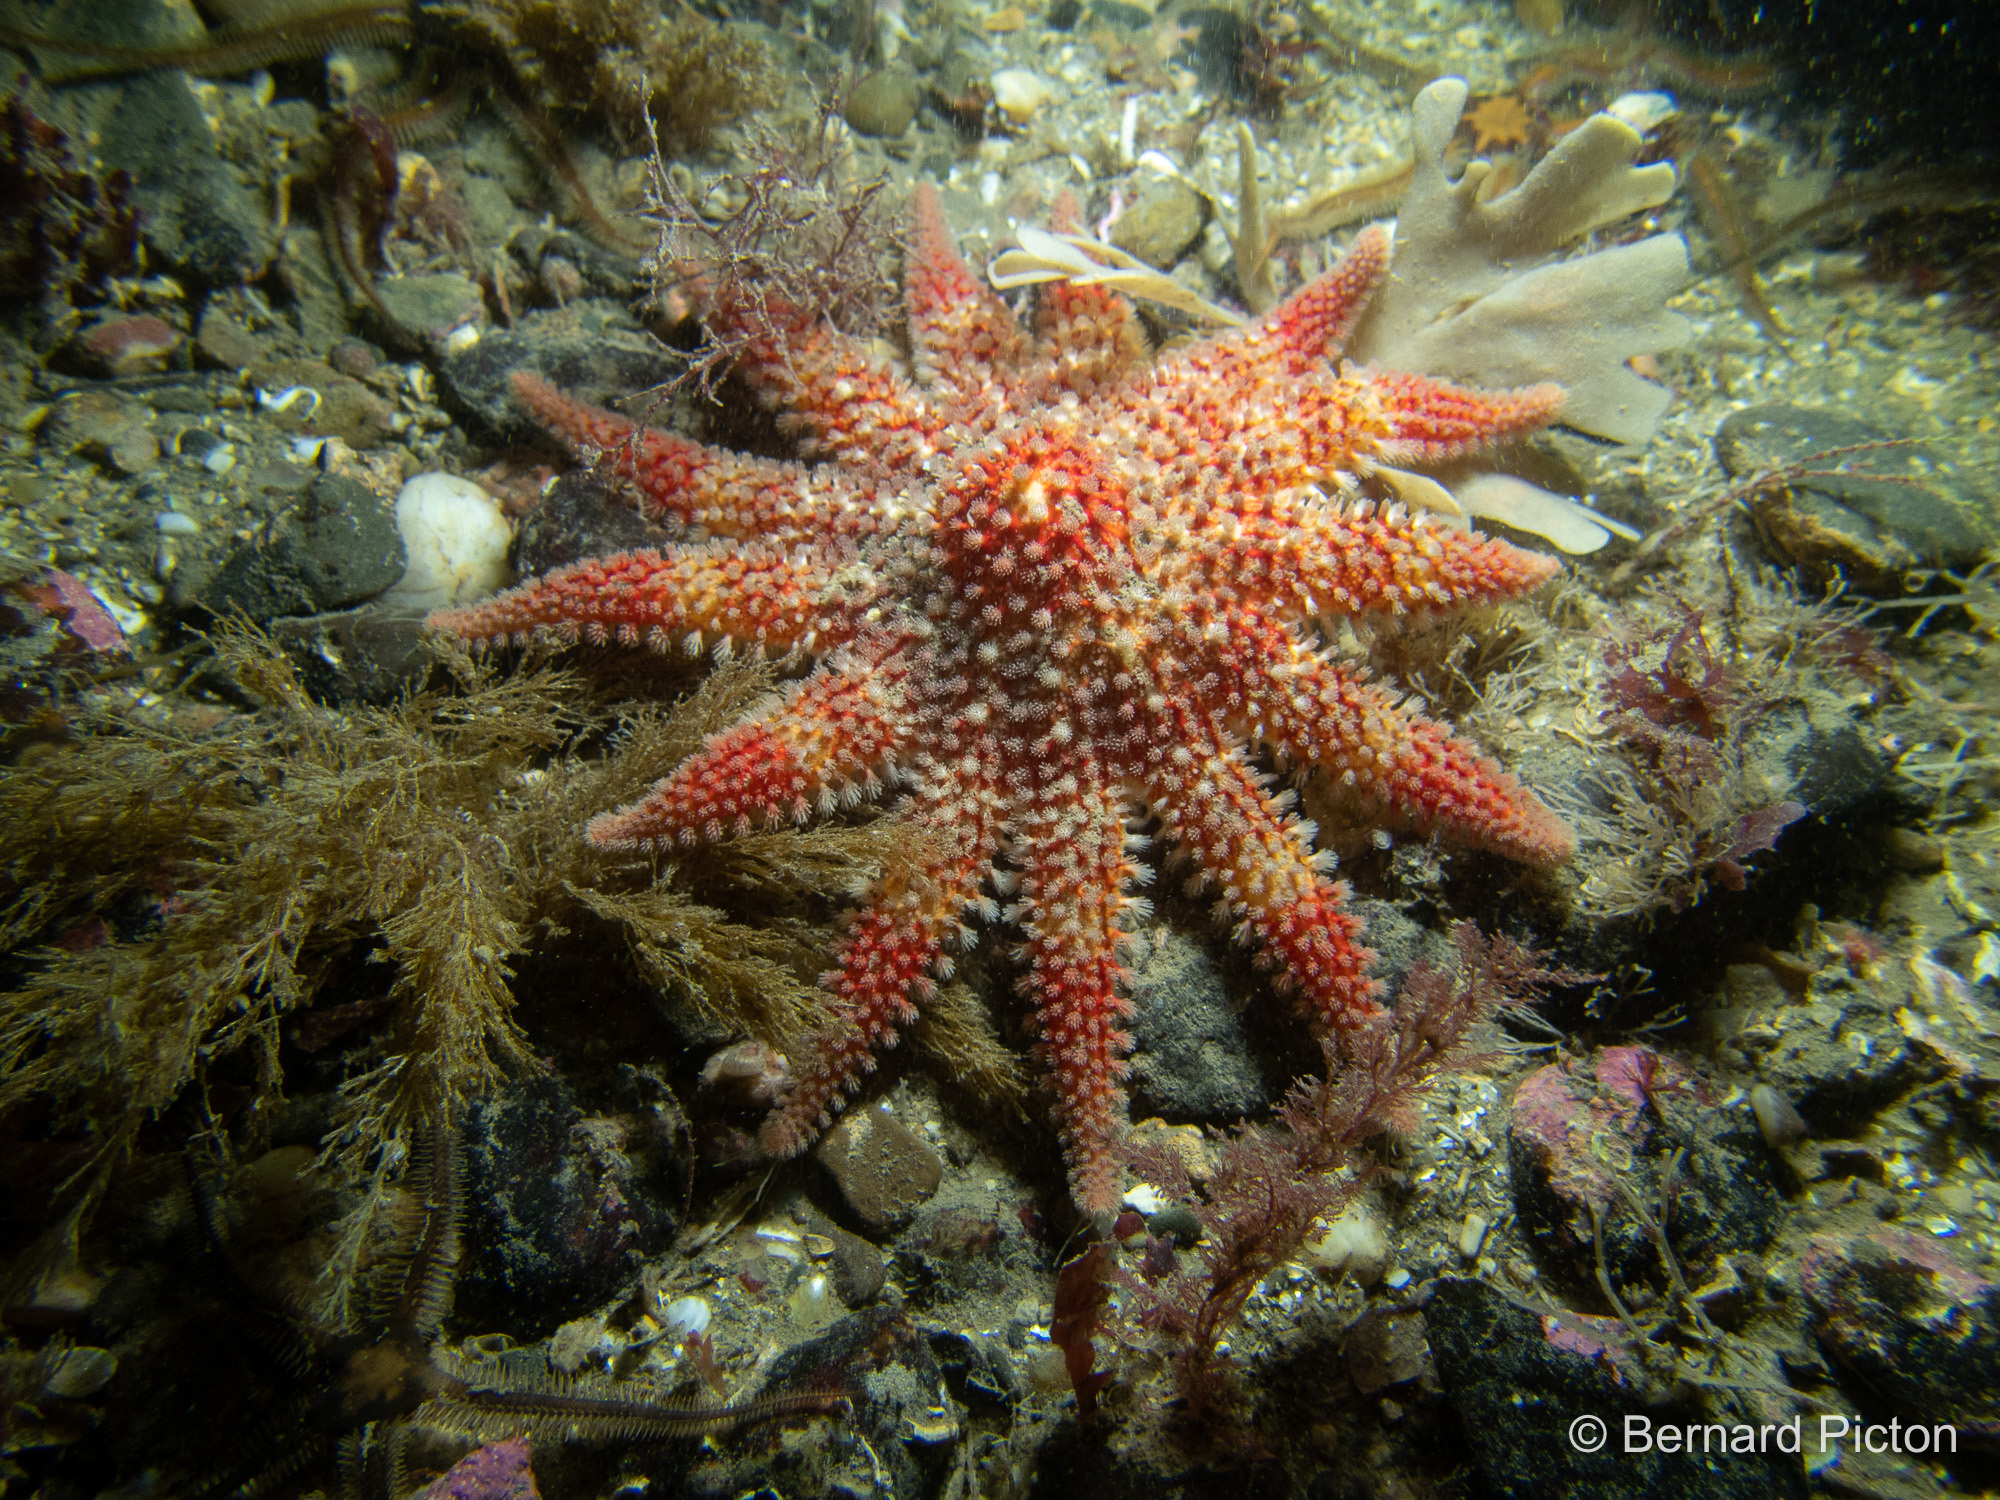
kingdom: Animalia
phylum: Echinodermata
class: Asteroidea
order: Valvatida
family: Solasteridae
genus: Crossaster
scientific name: Crossaster papposus
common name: Common sun star
